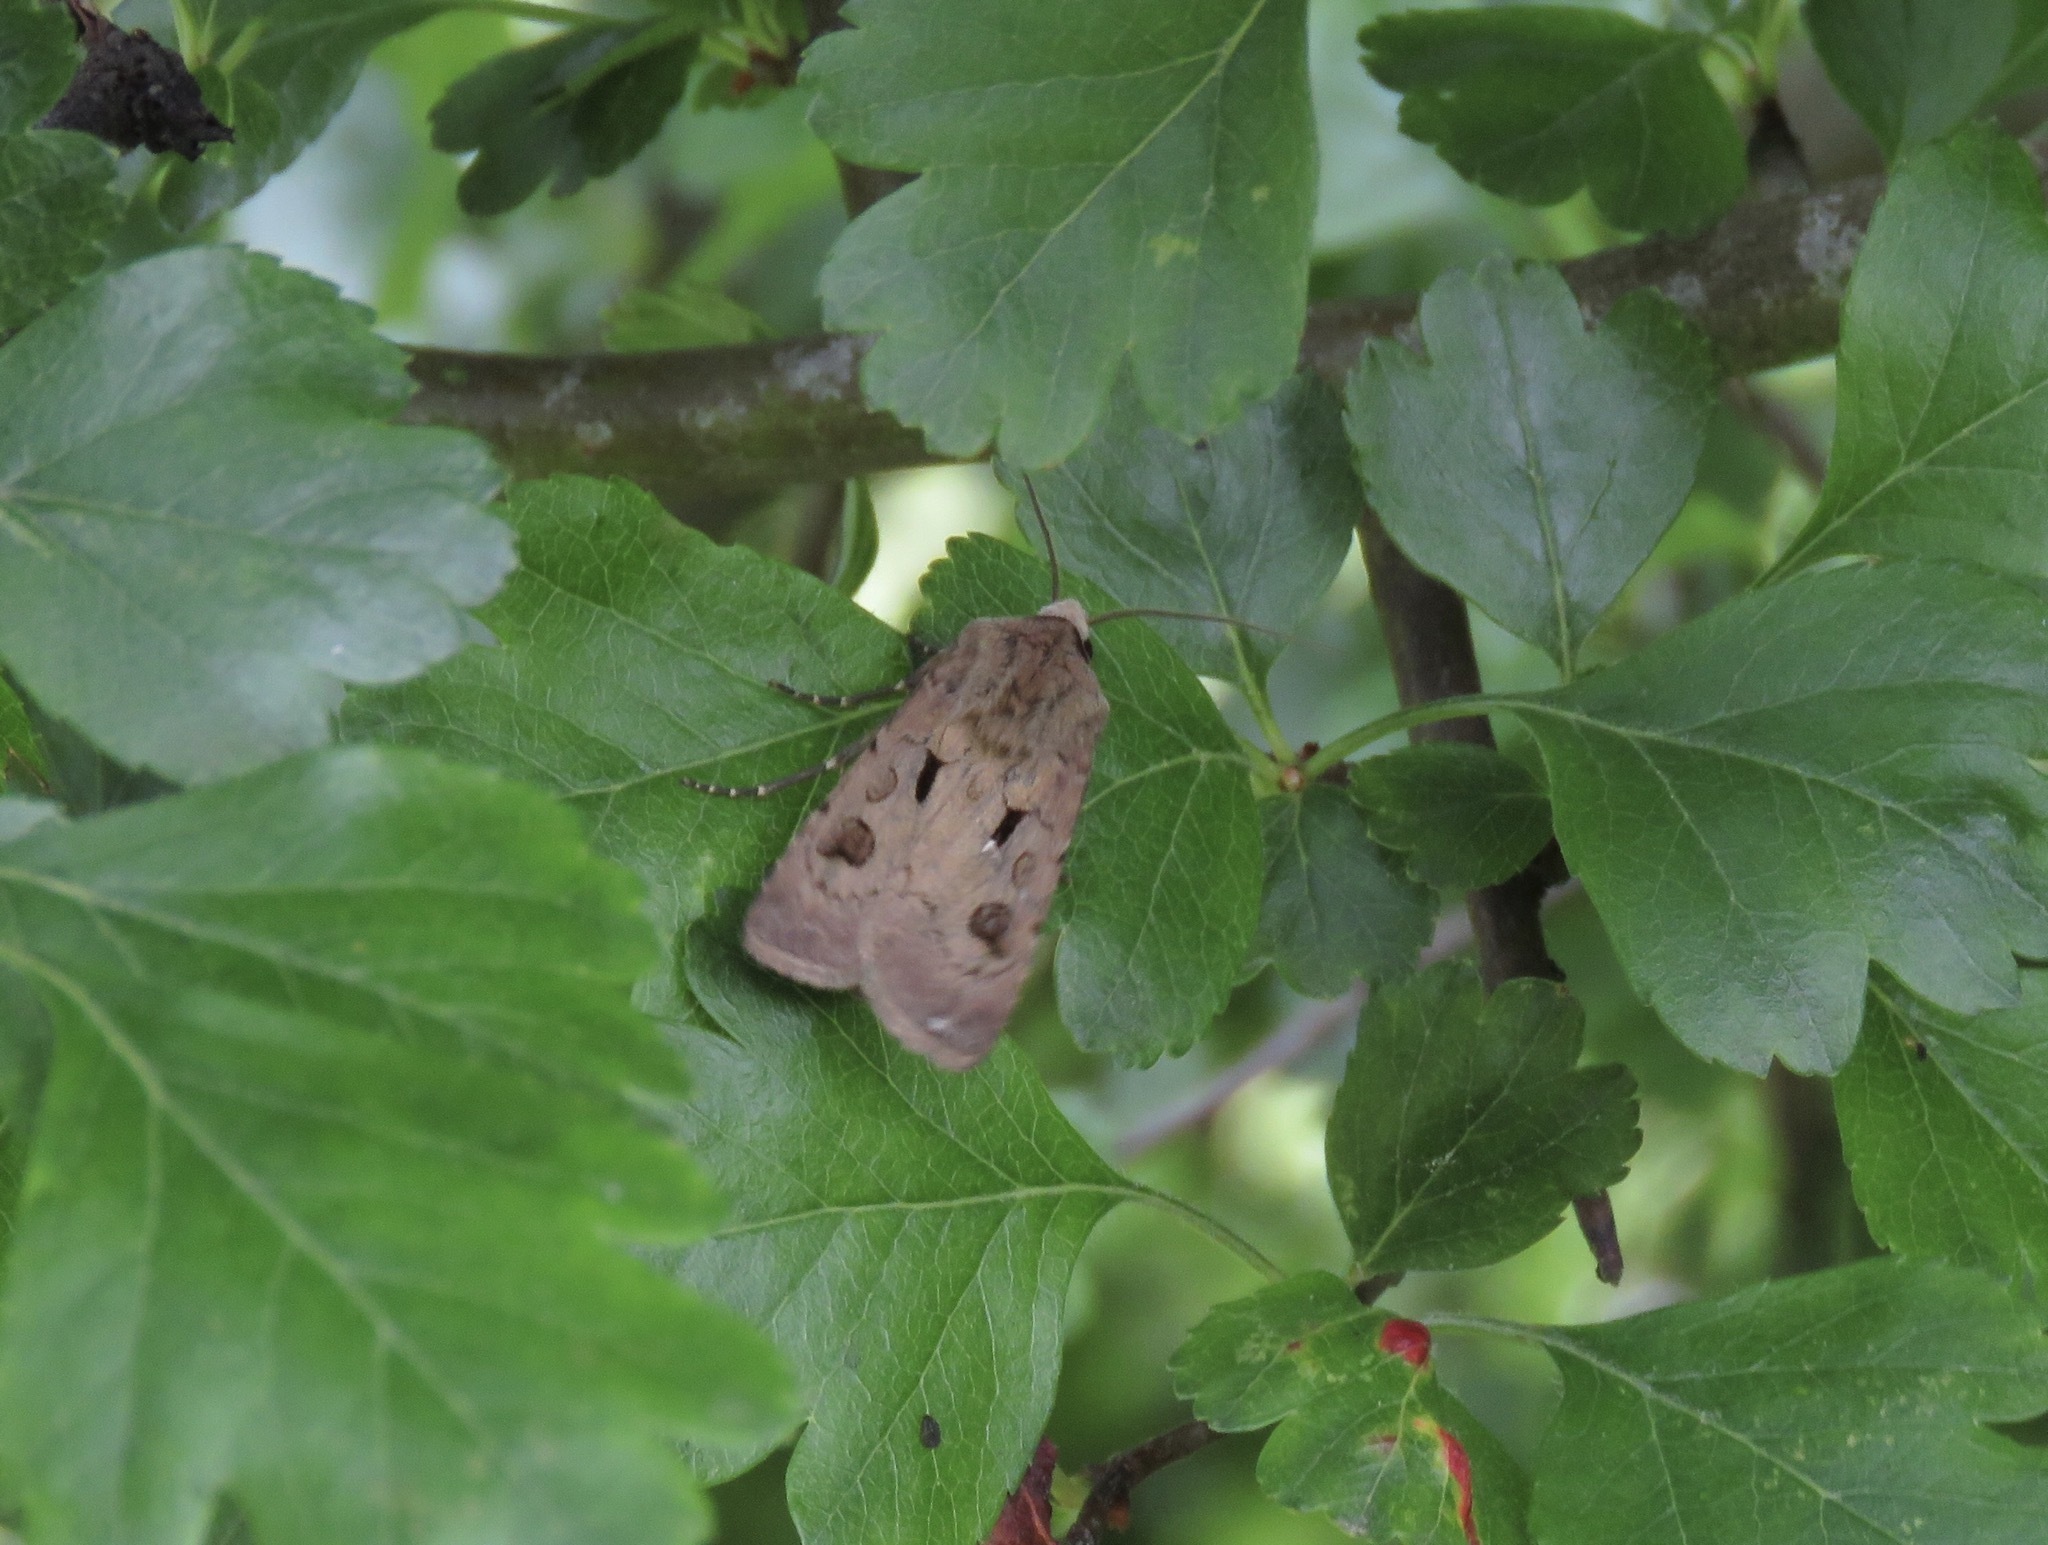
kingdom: Animalia
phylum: Arthropoda
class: Insecta
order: Lepidoptera
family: Noctuidae
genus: Agrotis
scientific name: Agrotis exclamationis
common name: Heart and dart
